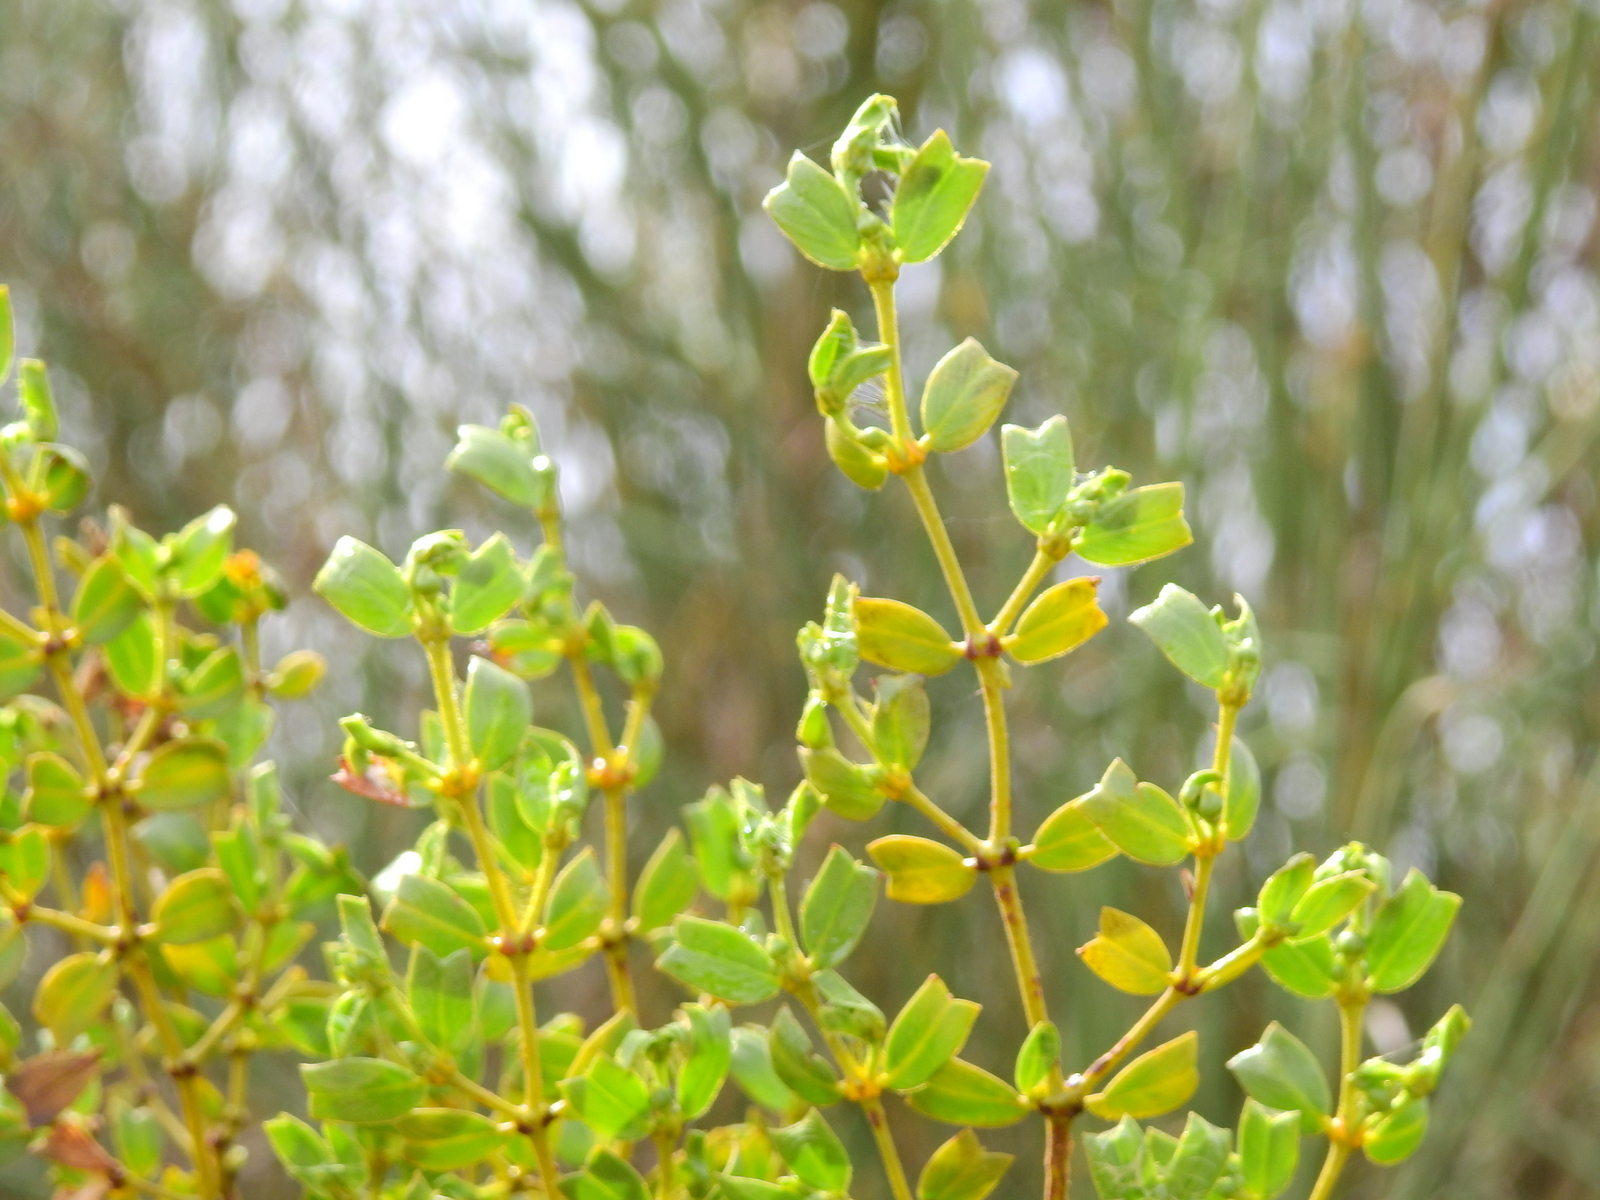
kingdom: Plantae
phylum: Tracheophyta
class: Magnoliopsida
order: Zygophyllales
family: Zygophyllaceae
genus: Larrea
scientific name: Larrea cuneifolia
